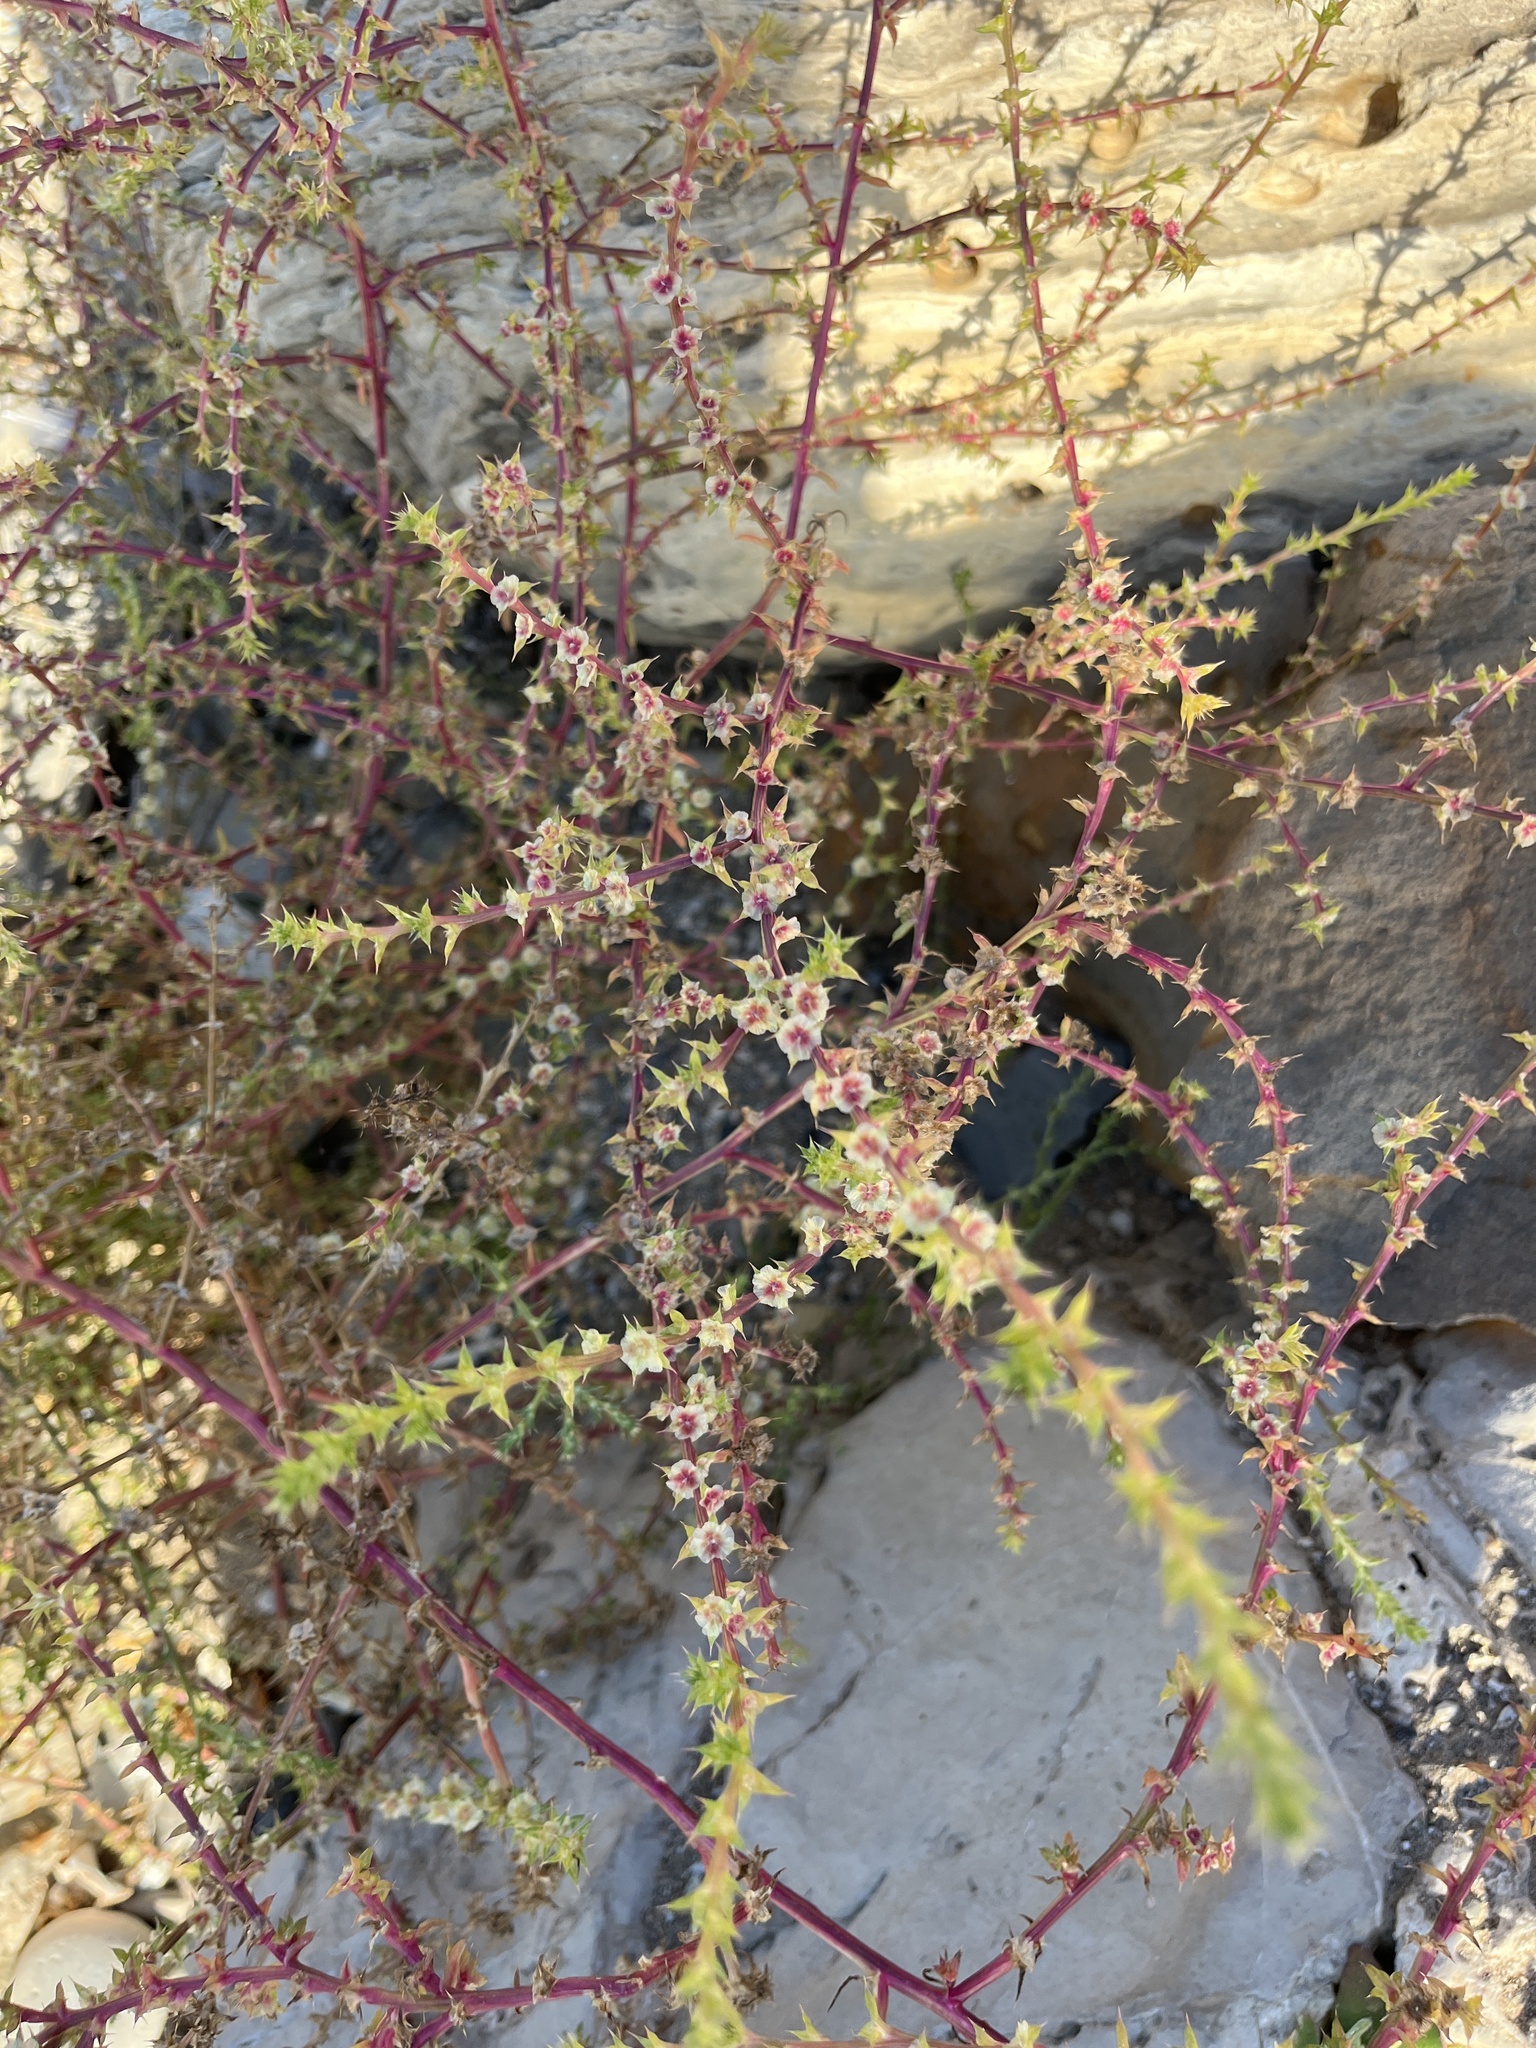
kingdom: Plantae
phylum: Tracheophyta
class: Magnoliopsida
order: Caryophyllales
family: Amaranthaceae
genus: Salsola
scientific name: Salsola tragus
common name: Prickly russian thistle
